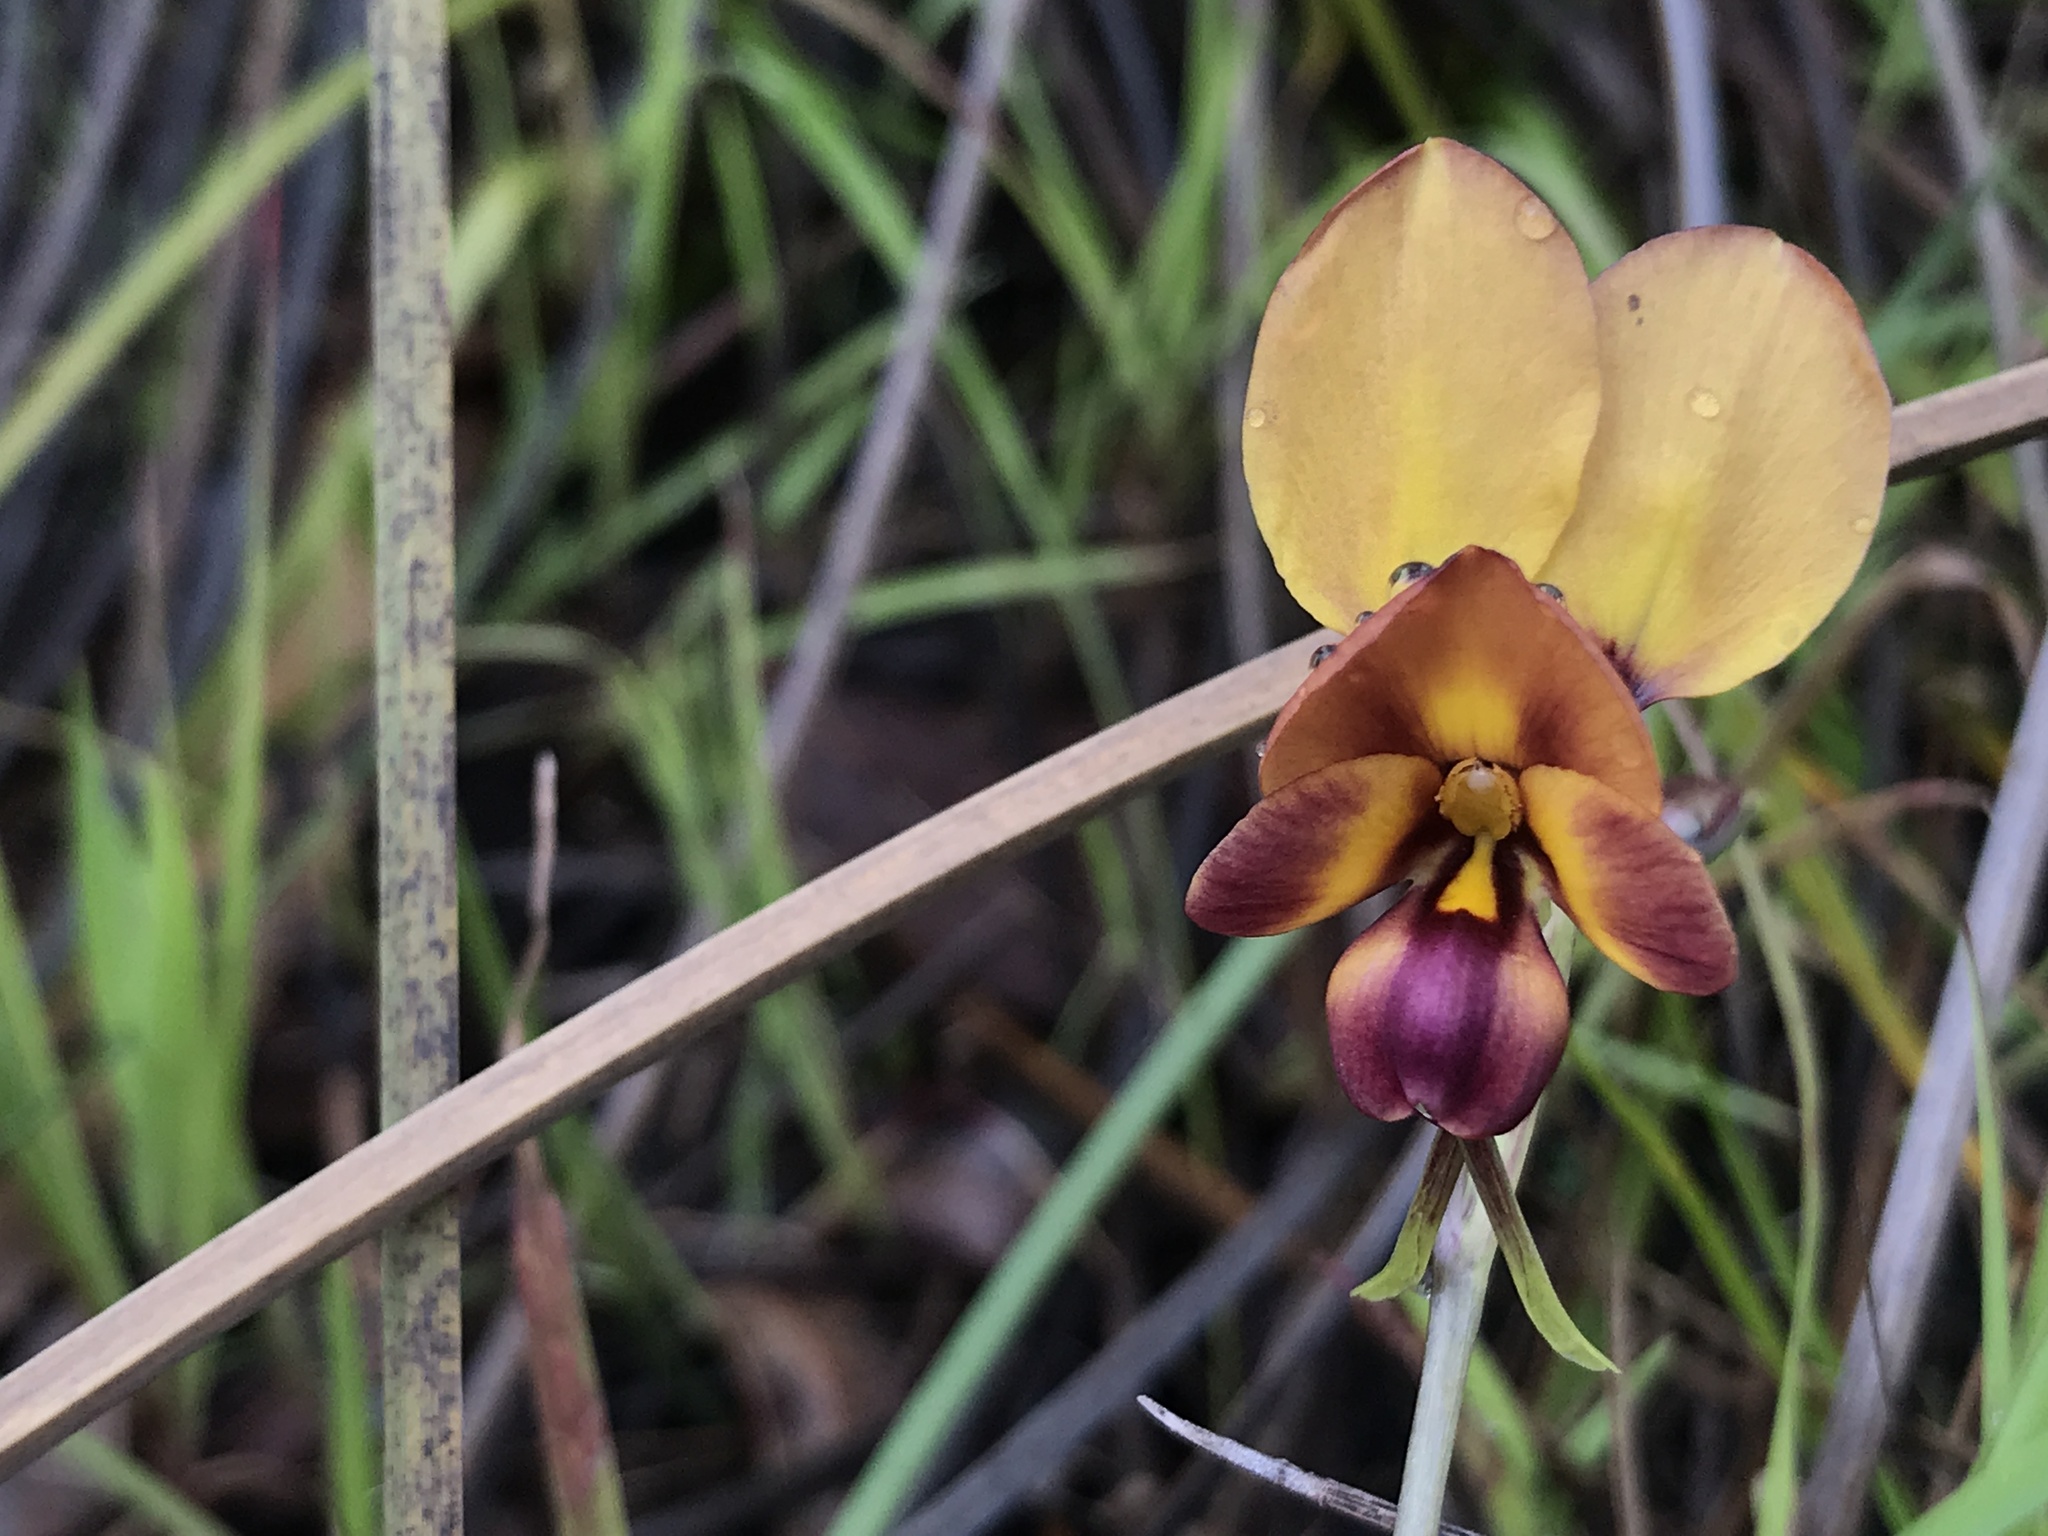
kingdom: Plantae
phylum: Tracheophyta
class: Liliopsida
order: Asparagales
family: Orchidaceae
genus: Diuris
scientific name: Diuris magnifica
